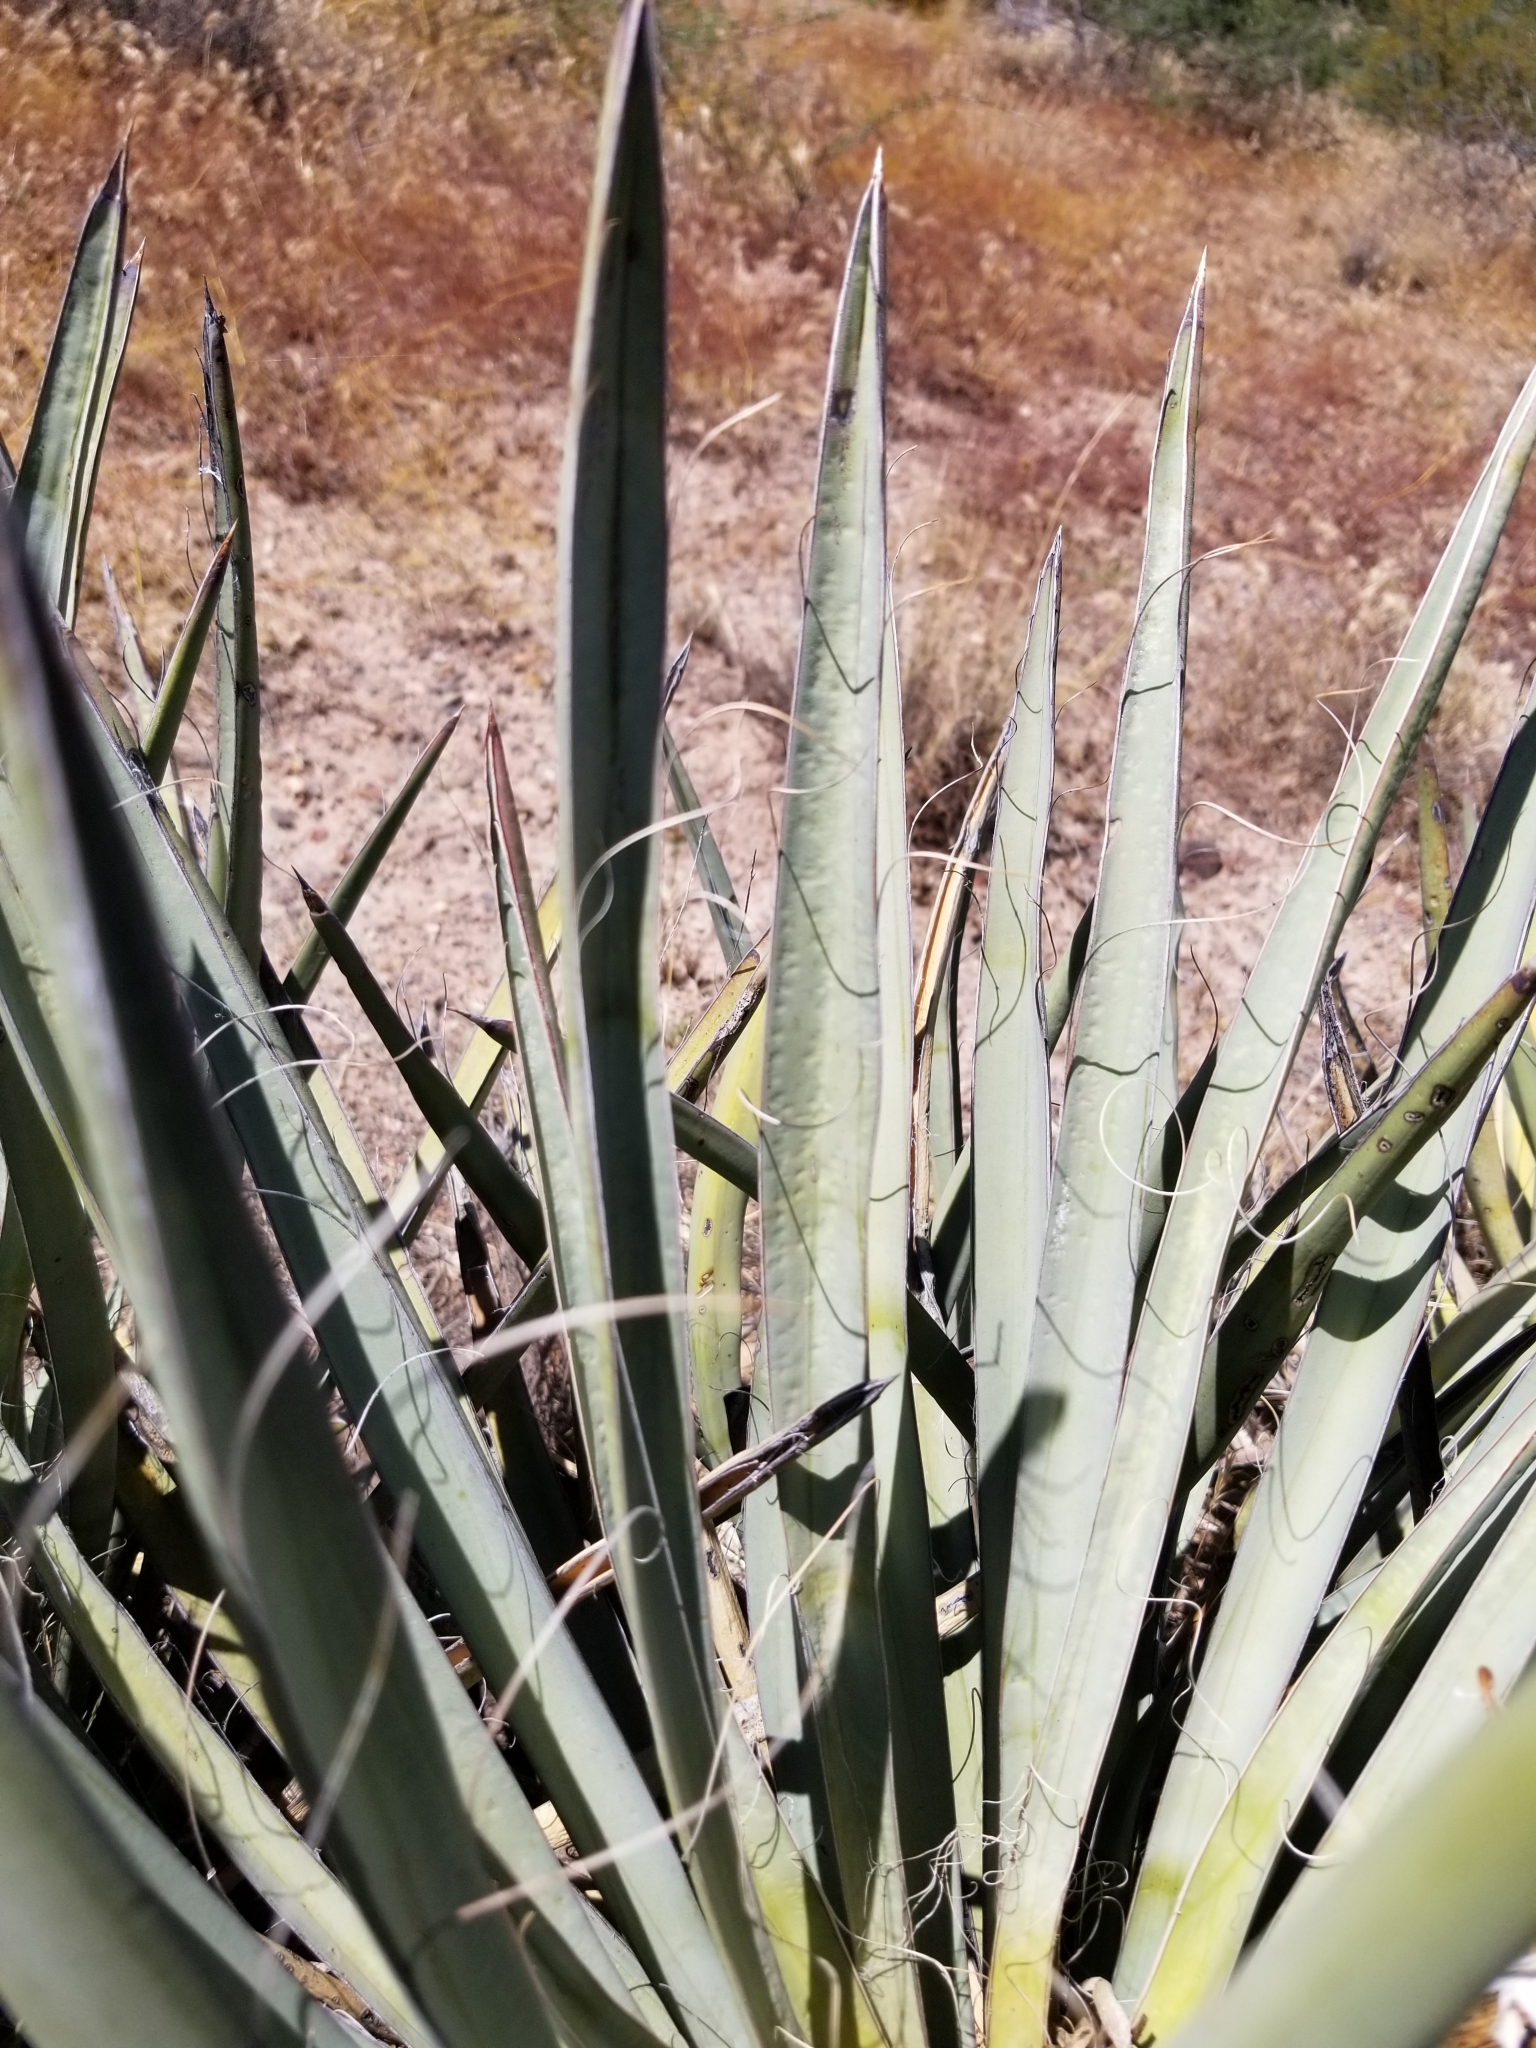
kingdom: Plantae
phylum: Tracheophyta
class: Liliopsida
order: Asparagales
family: Asparagaceae
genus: Yucca
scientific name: Yucca baccata
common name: Banana yucca
